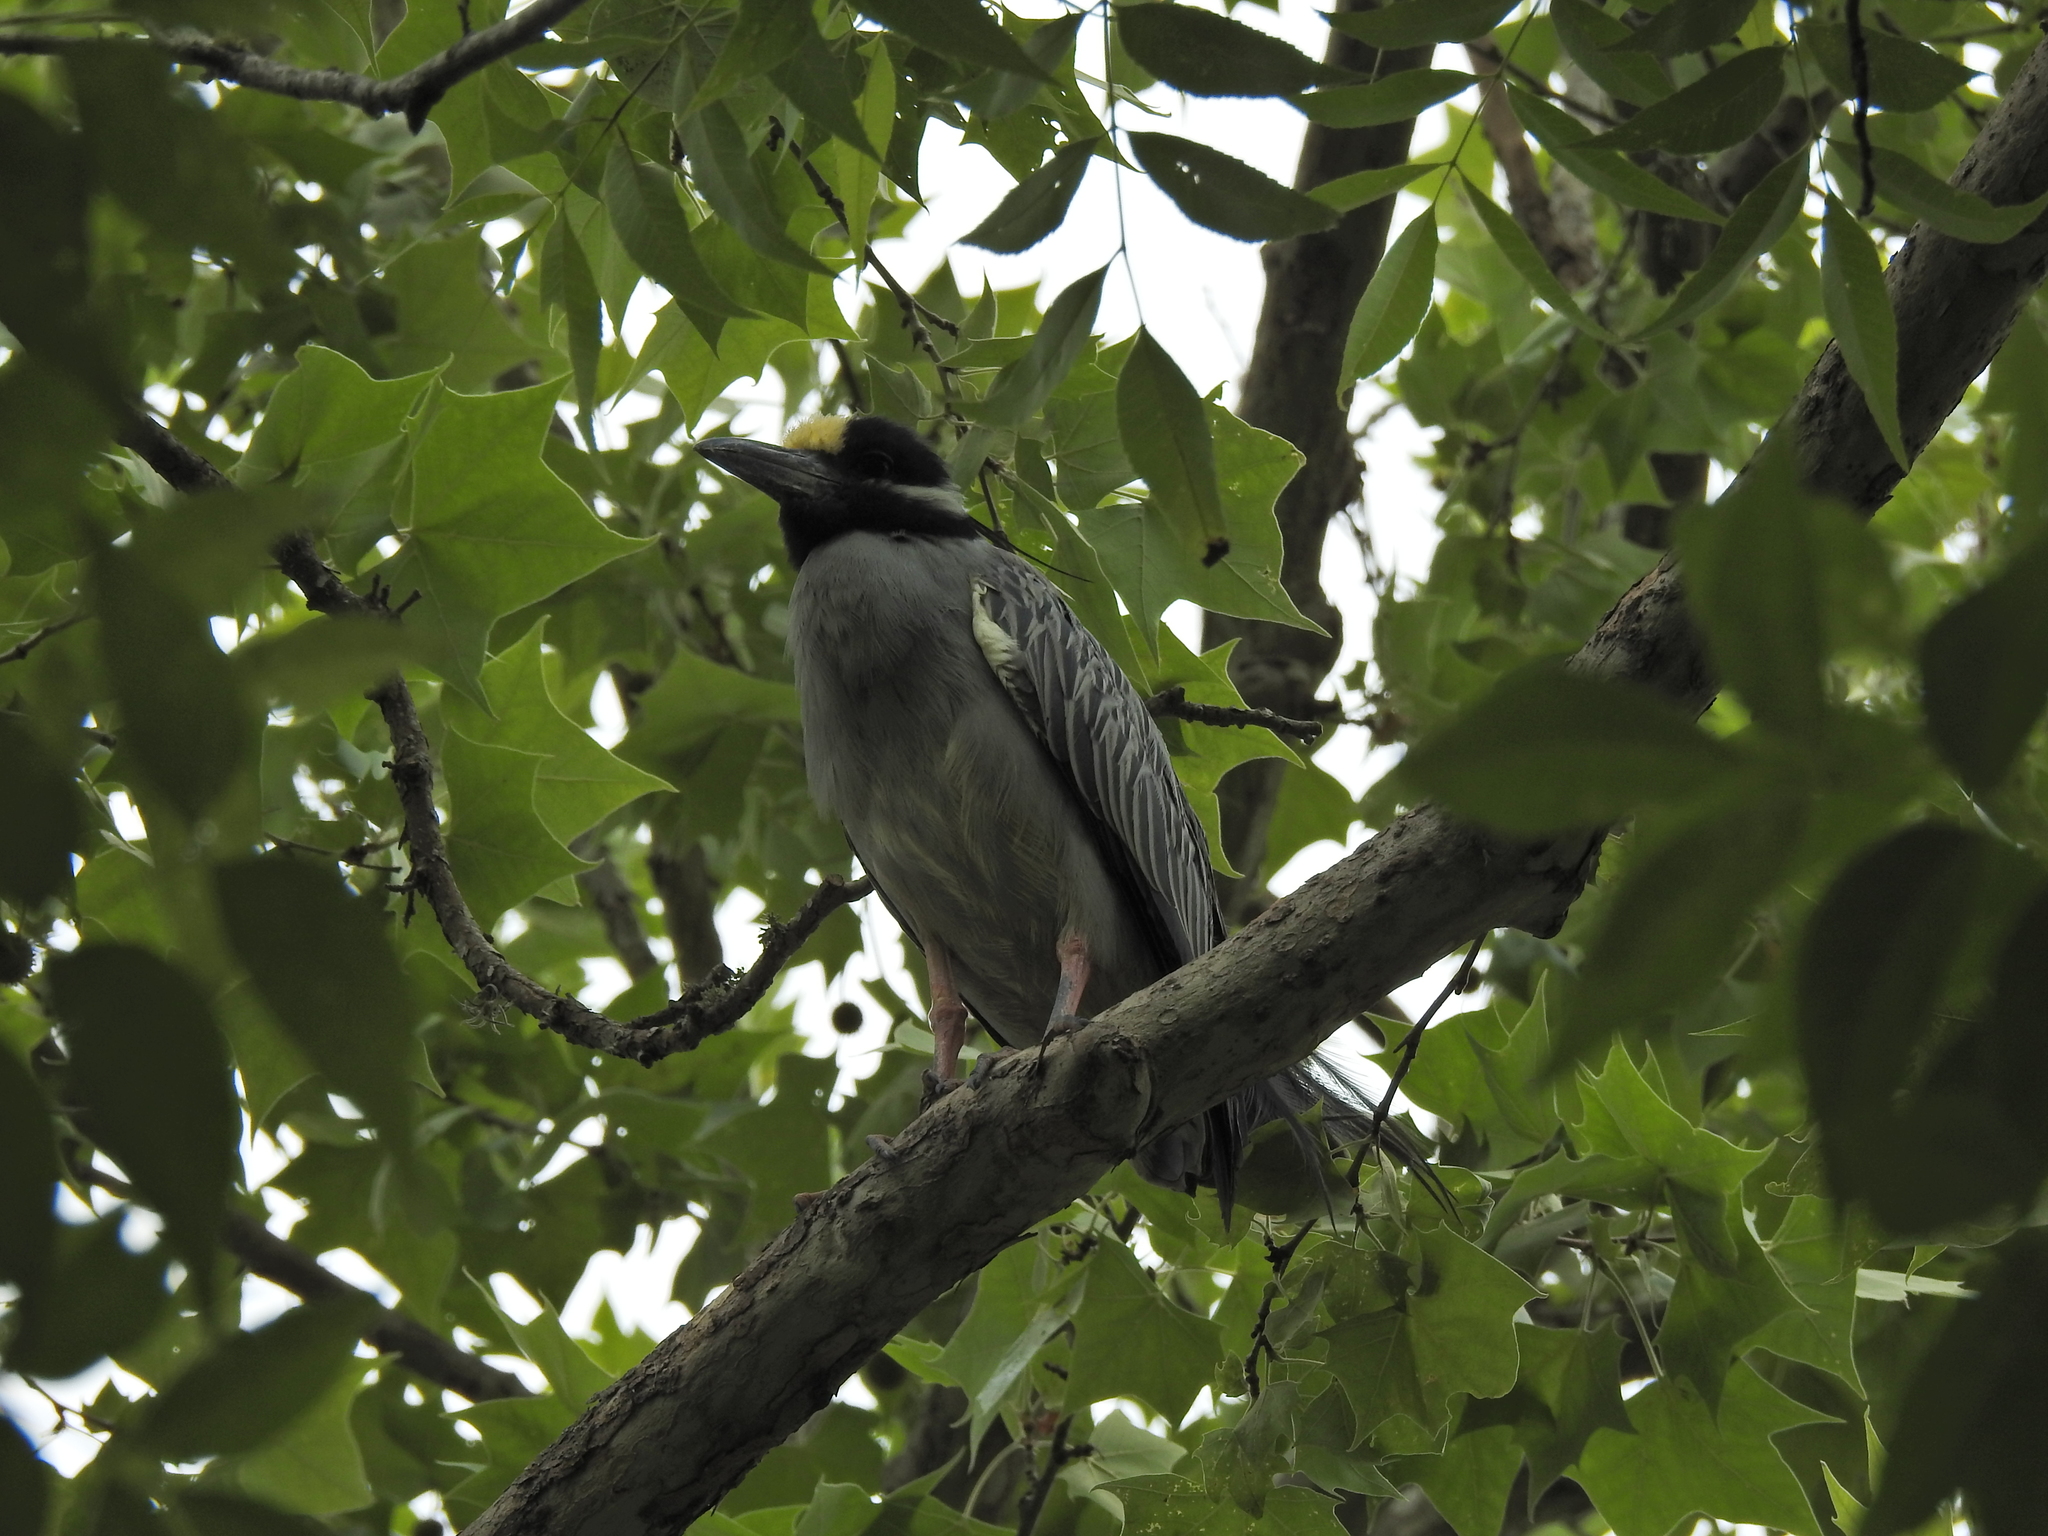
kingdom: Animalia
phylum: Chordata
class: Aves
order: Pelecaniformes
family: Ardeidae
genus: Nyctanassa
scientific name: Nyctanassa violacea
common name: Yellow-crowned night heron
